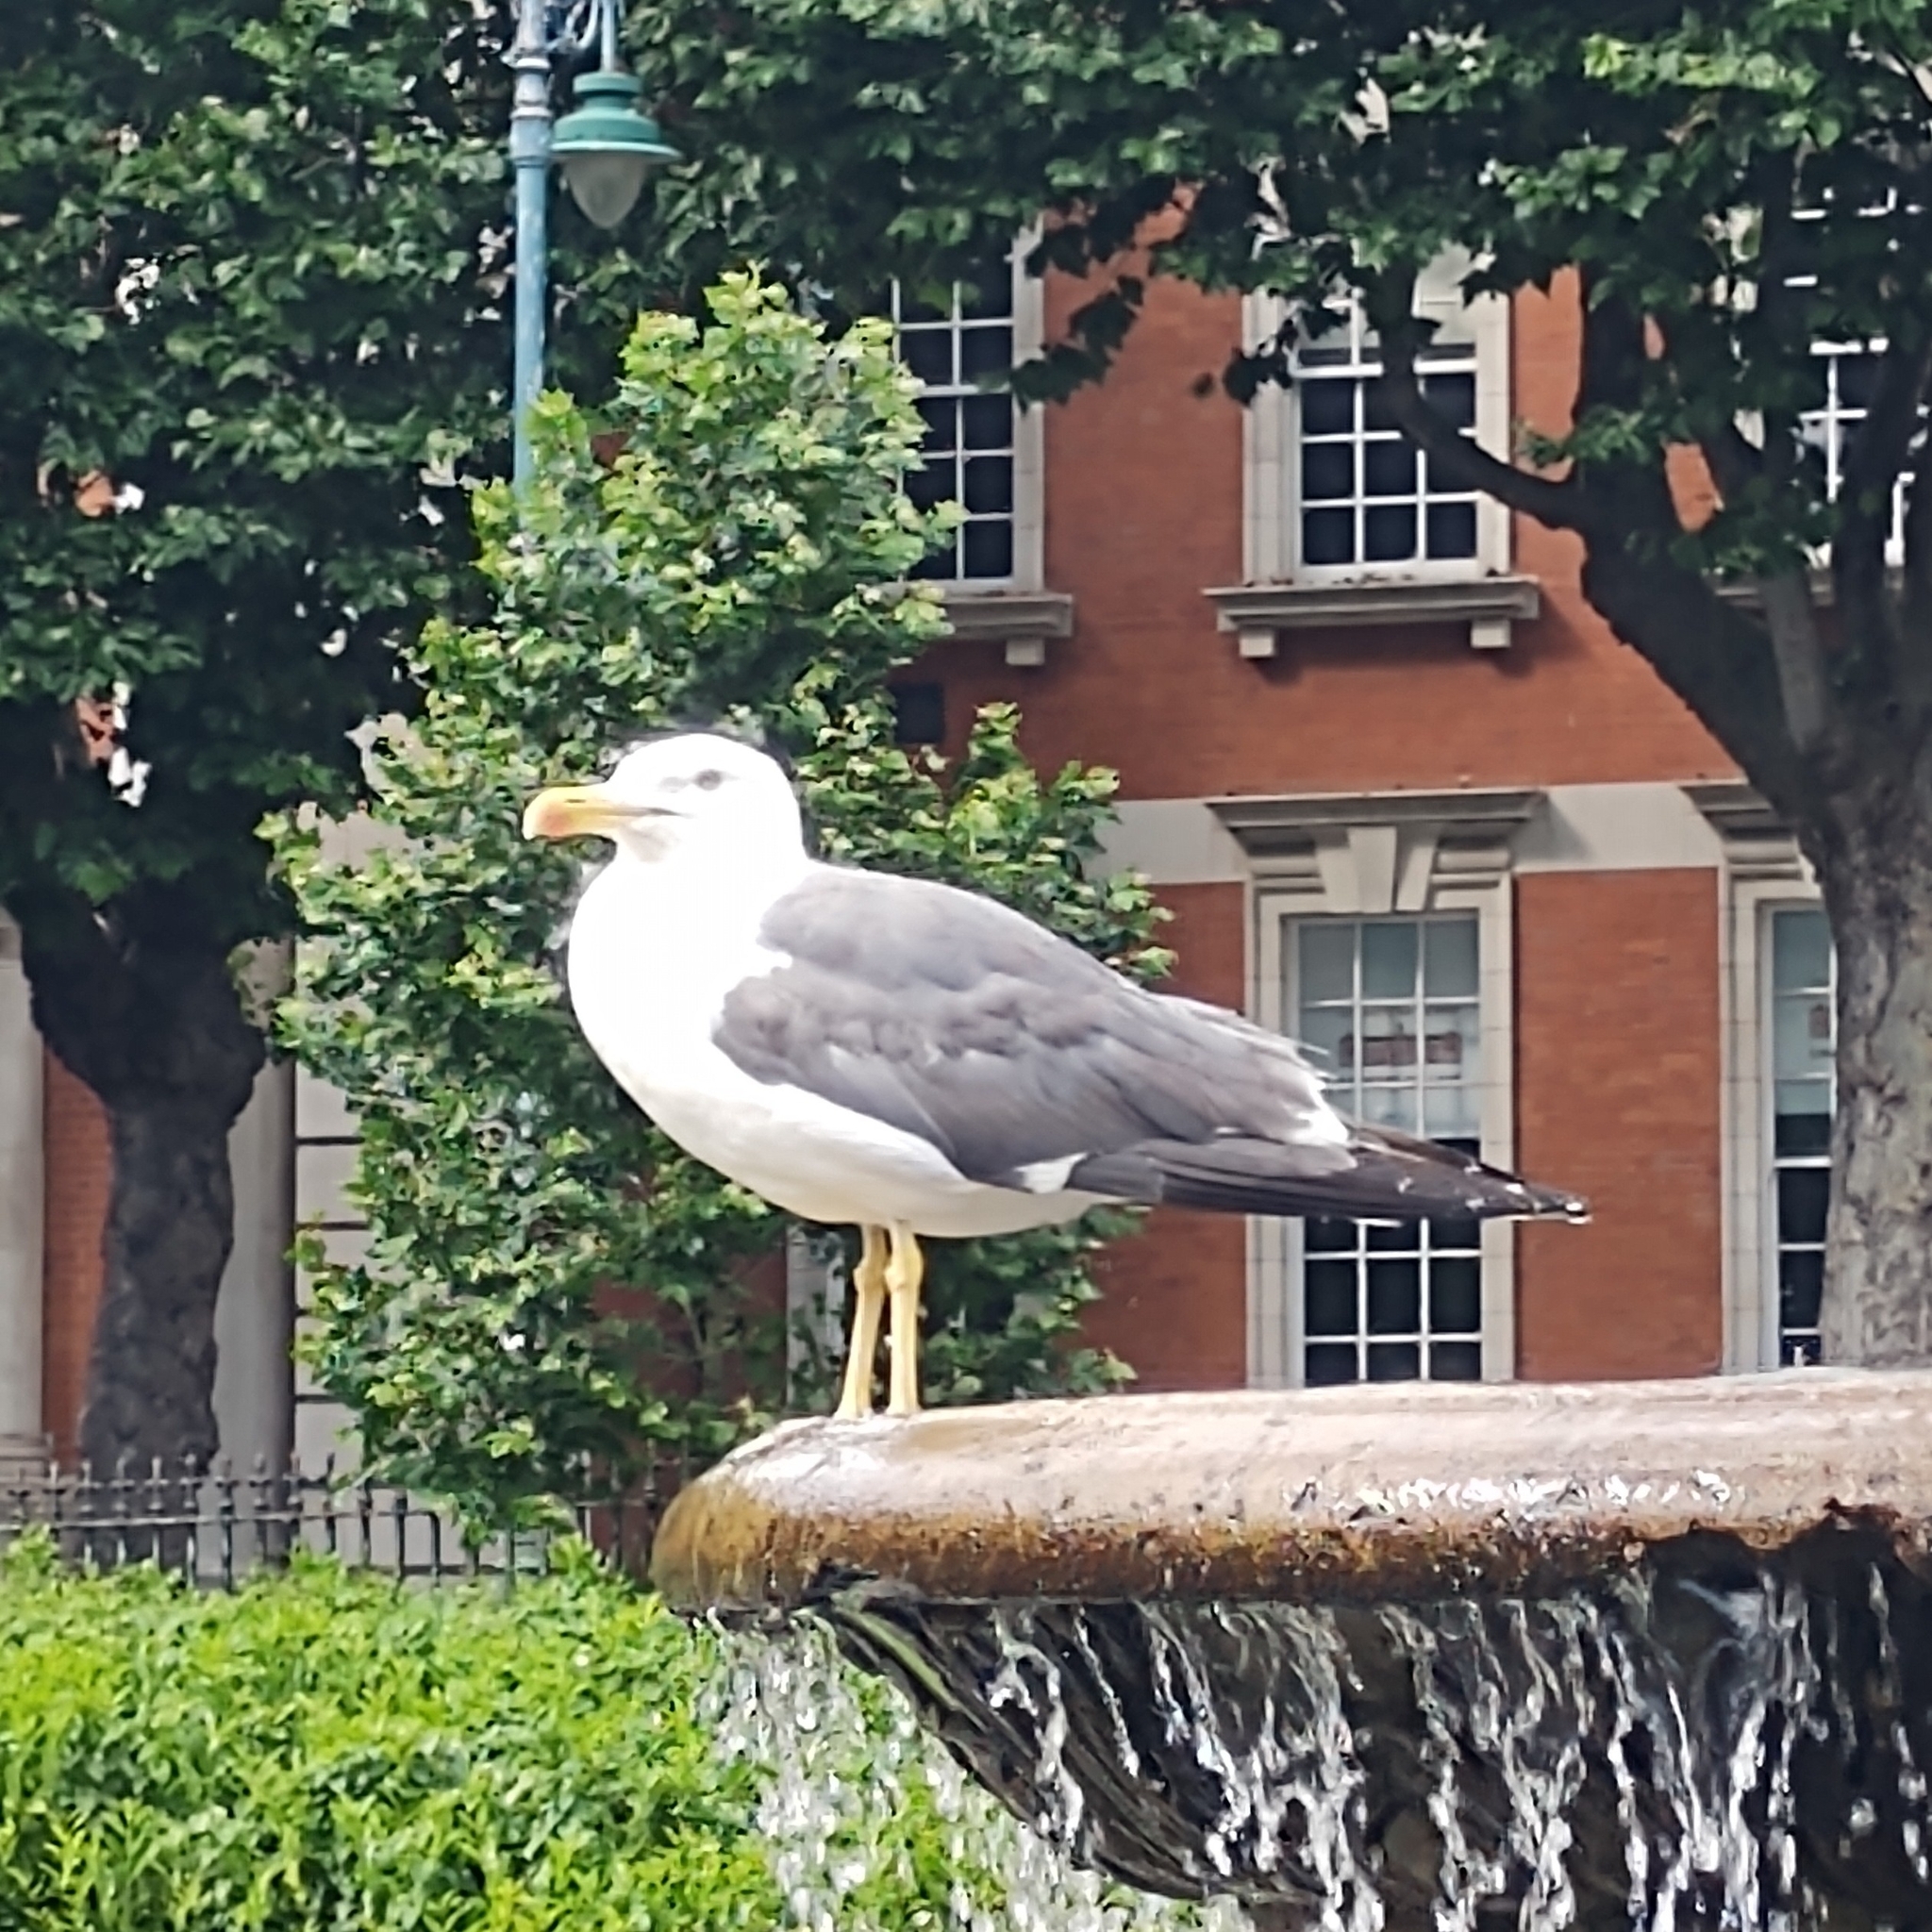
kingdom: Animalia
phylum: Chordata
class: Aves
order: Charadriiformes
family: Laridae
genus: Larus
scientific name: Larus fuscus
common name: Lesser black-backed gull
